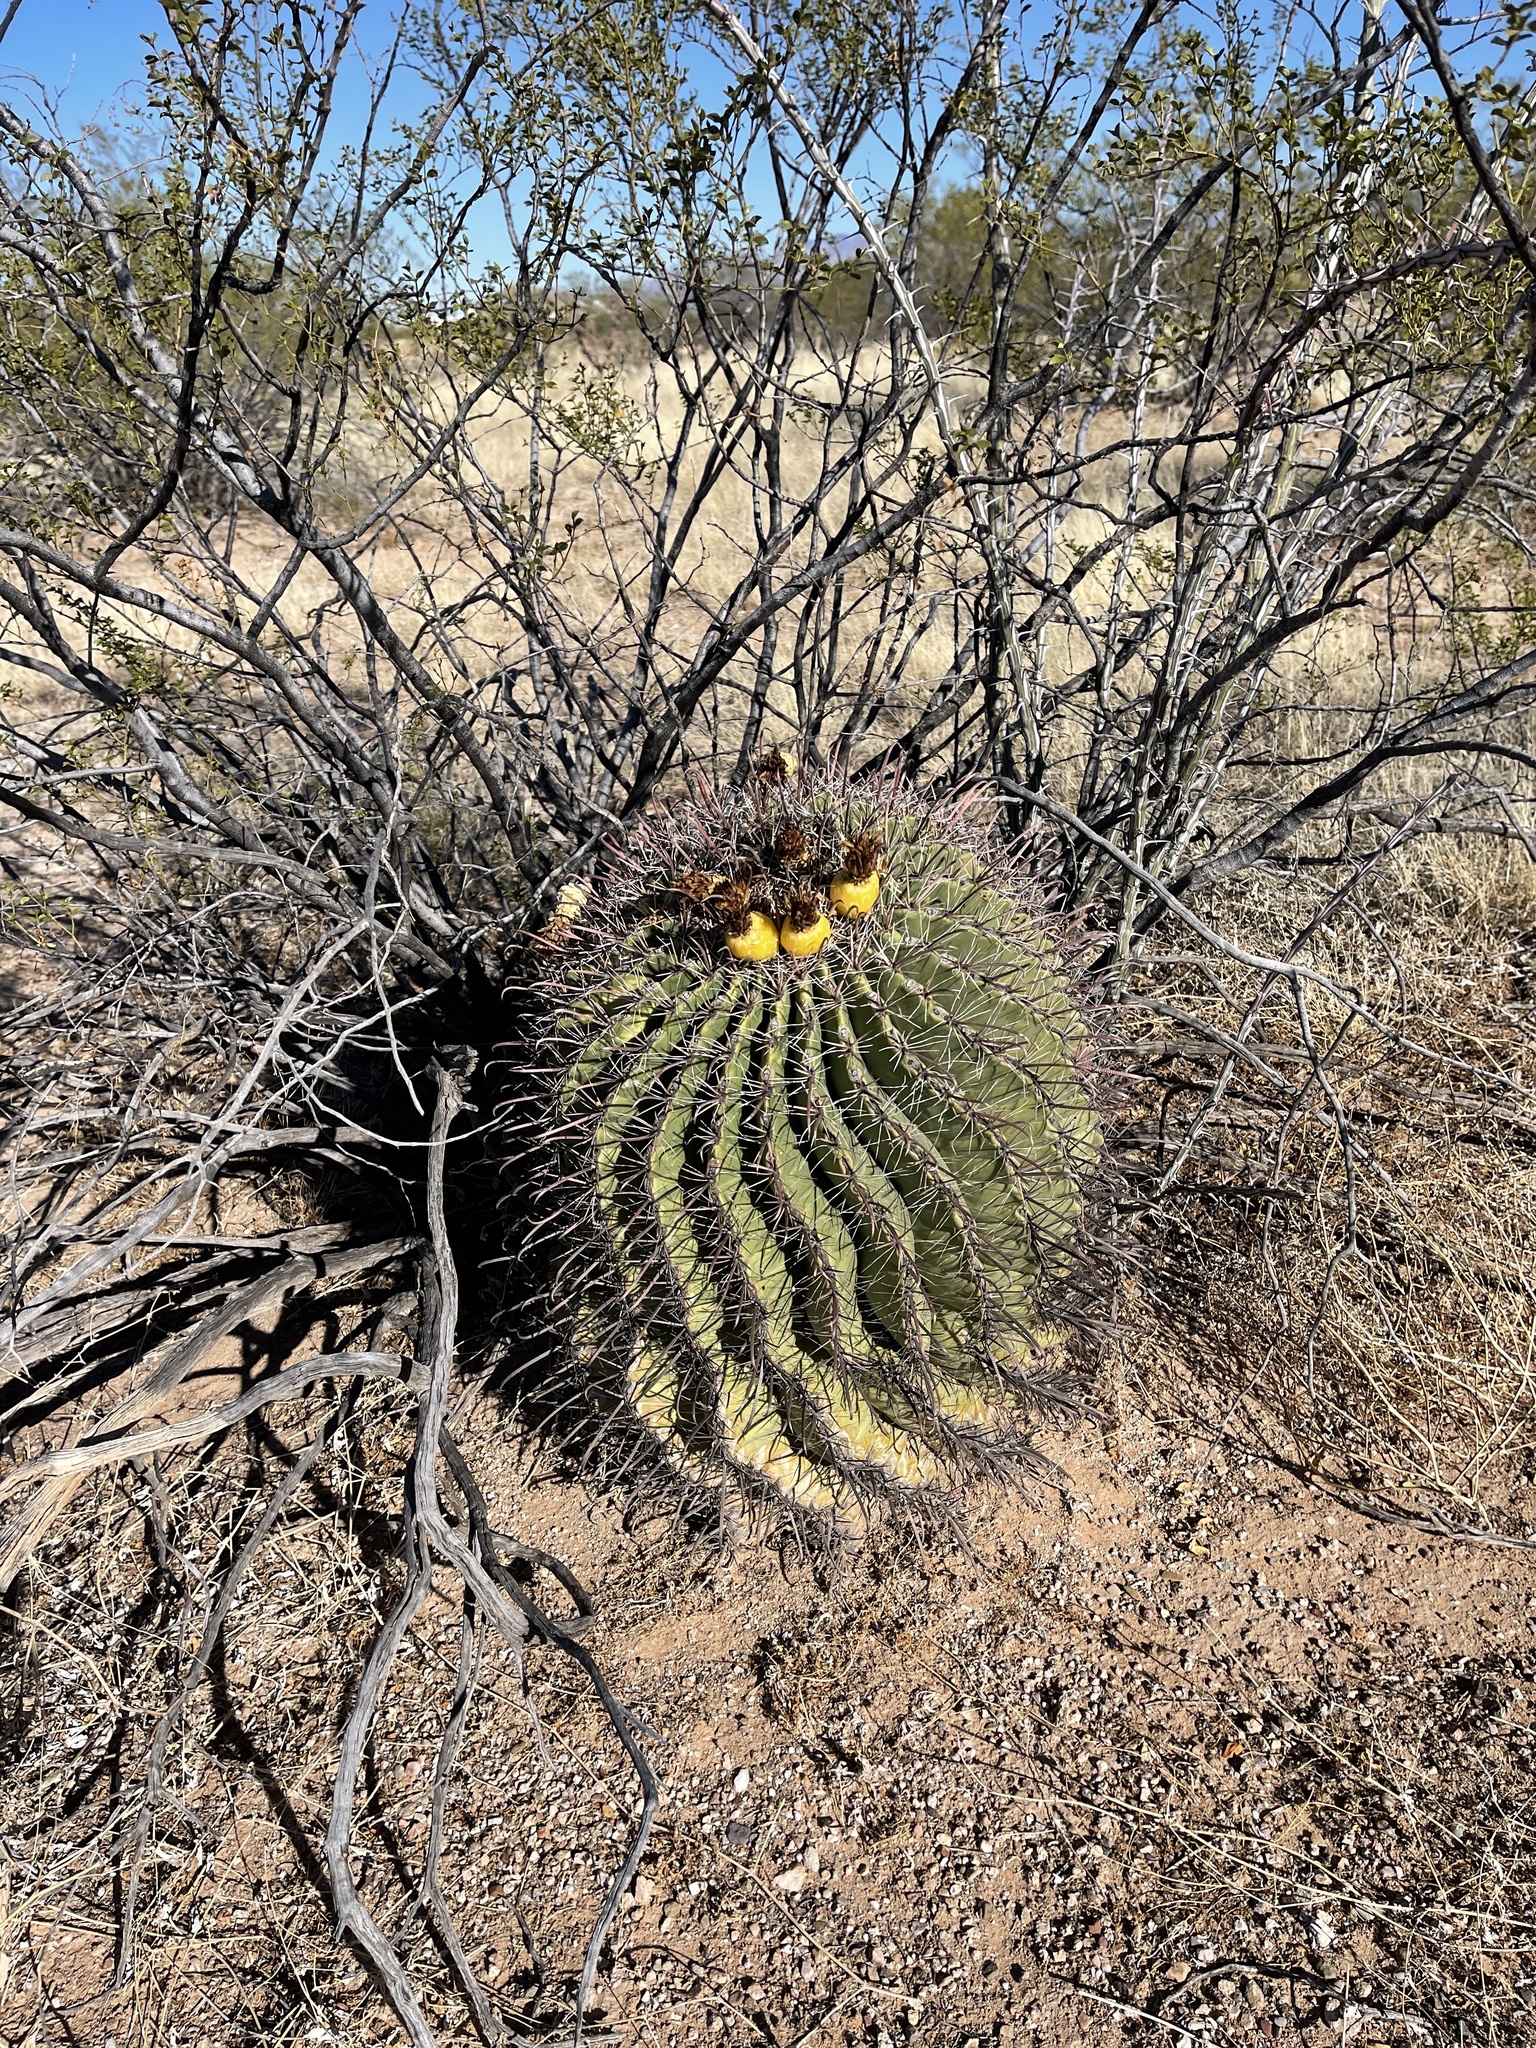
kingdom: Plantae
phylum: Tracheophyta
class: Magnoliopsida
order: Caryophyllales
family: Cactaceae
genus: Ferocactus
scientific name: Ferocactus wislizeni
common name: Candy barrel cactus
